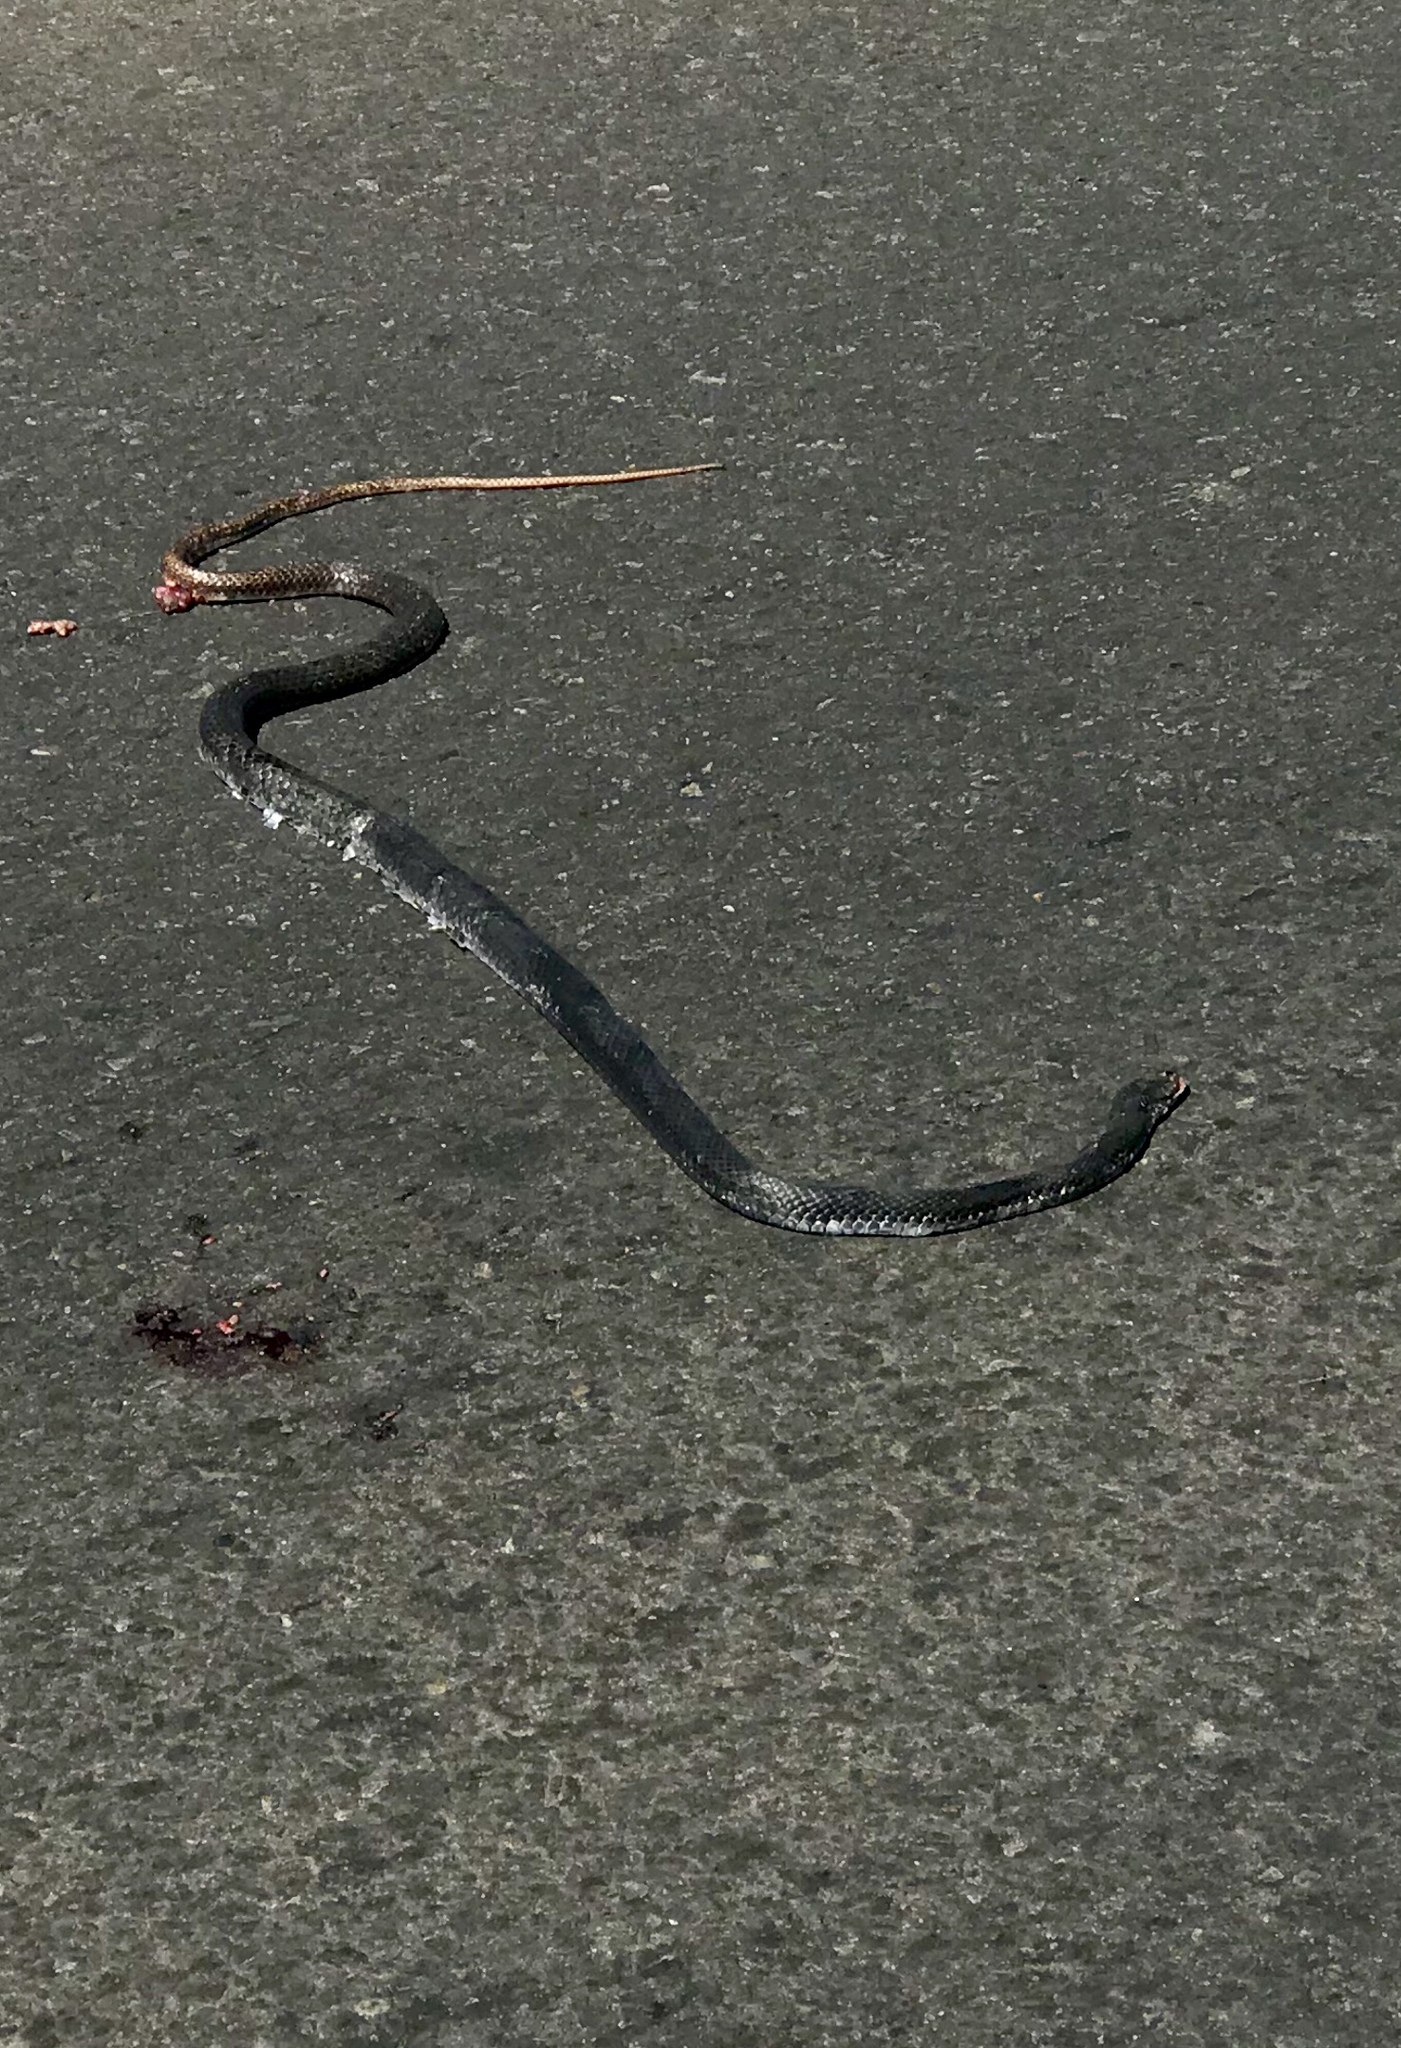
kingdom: Animalia
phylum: Chordata
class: Squamata
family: Colubridae
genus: Masticophis
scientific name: Masticophis flagellum
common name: Coachwhip
